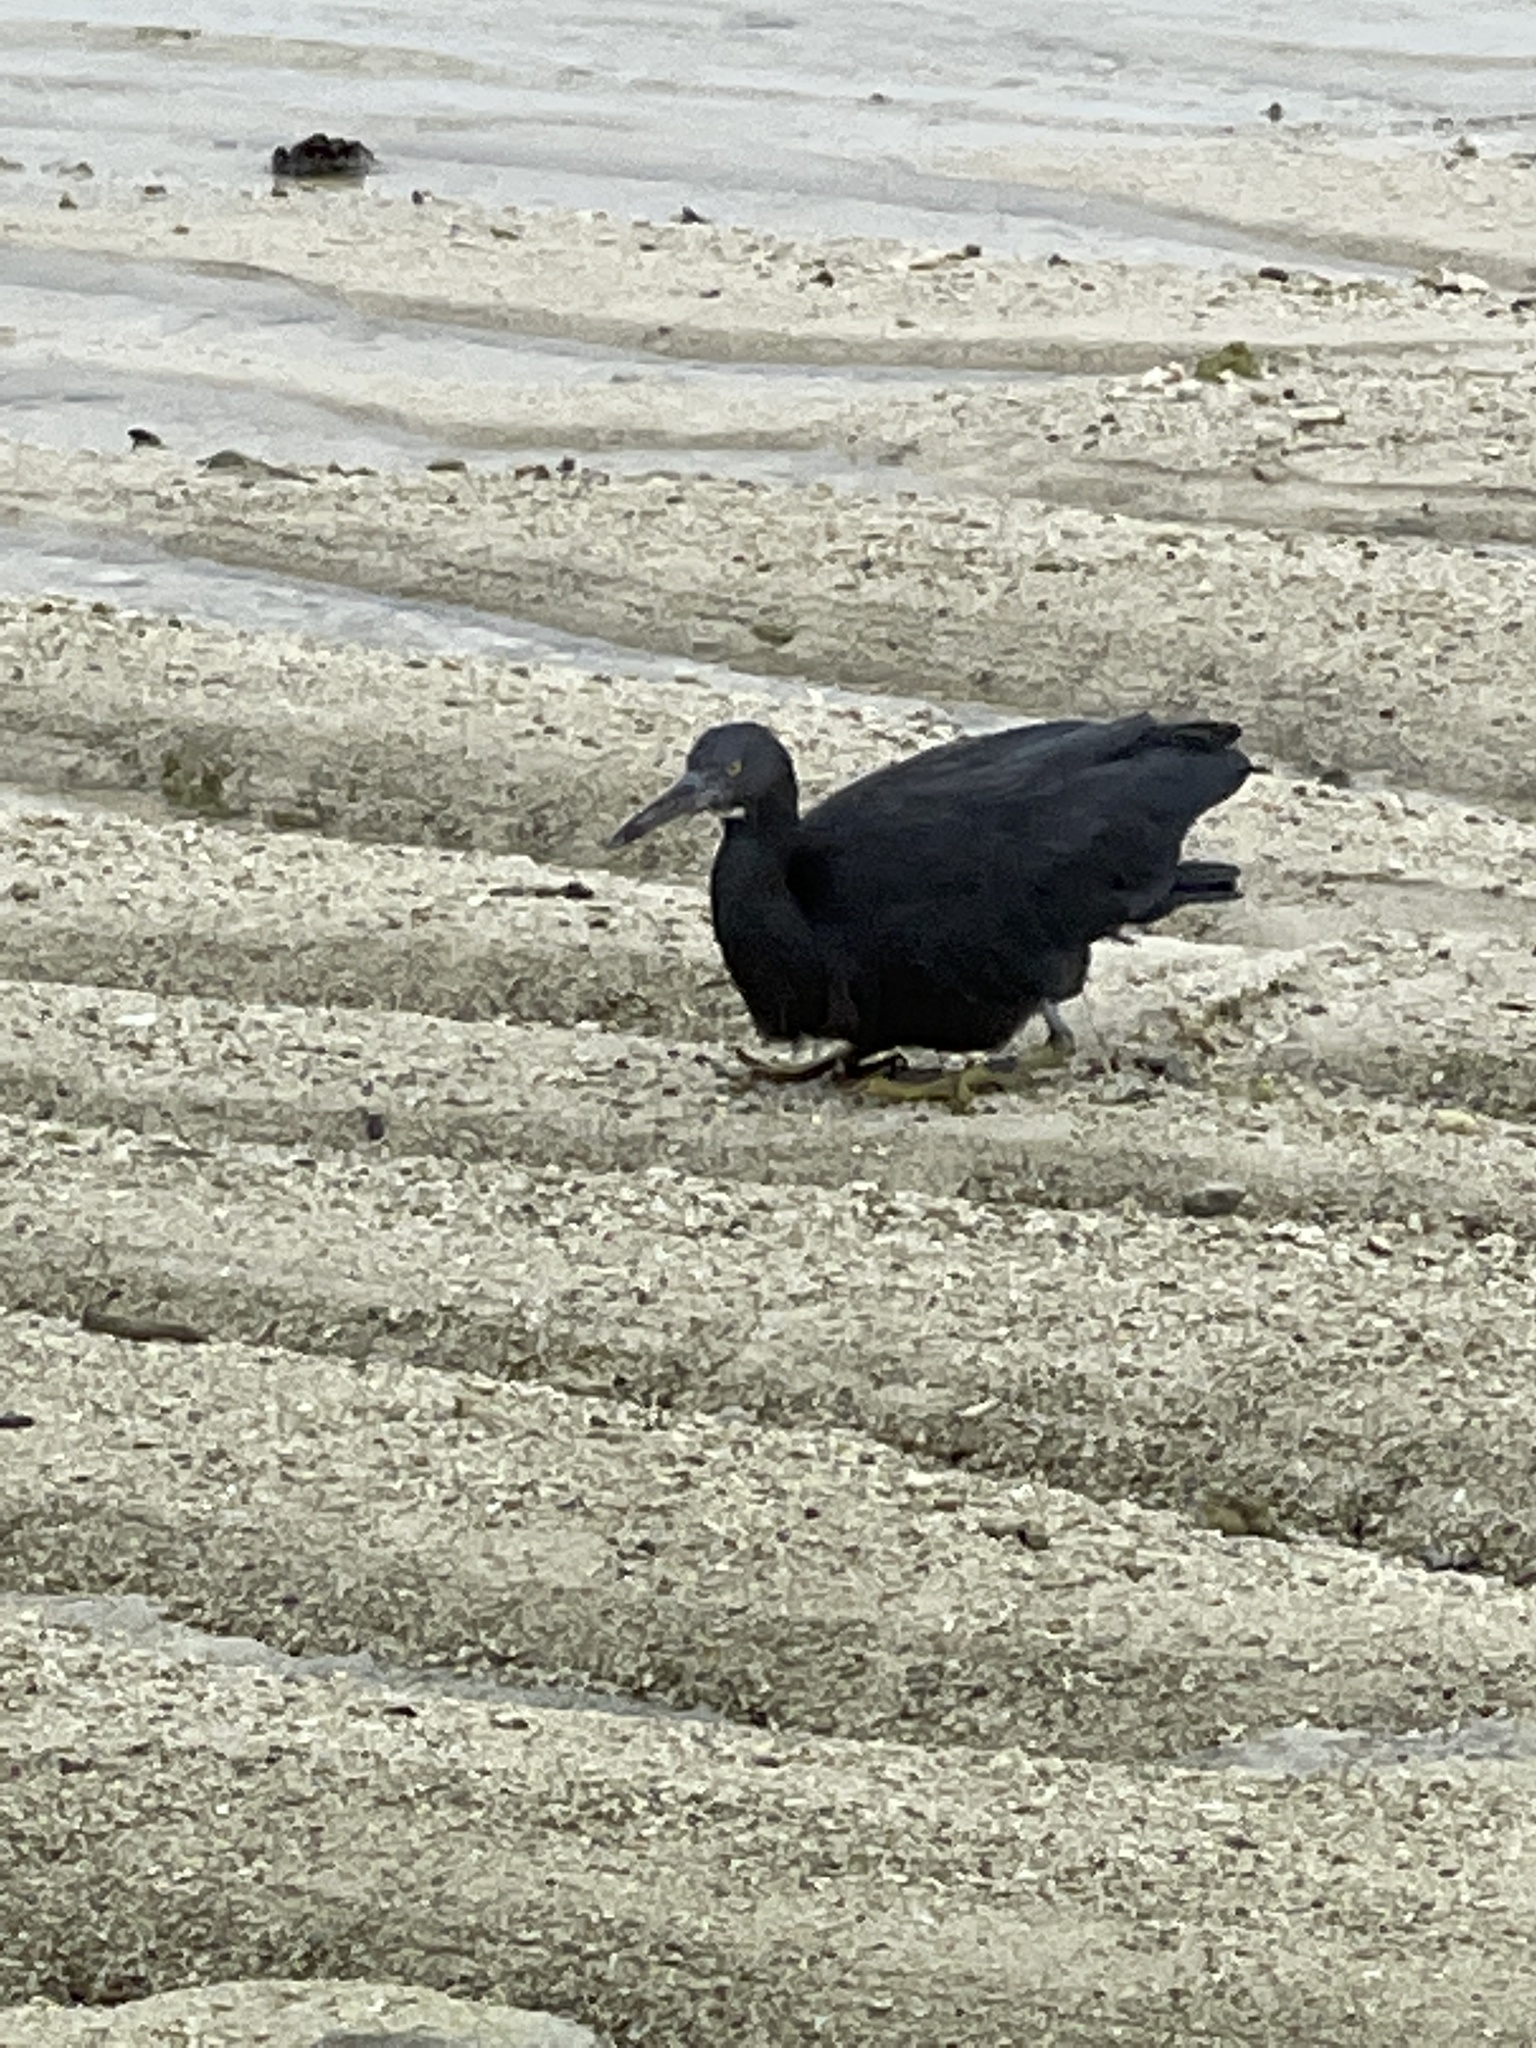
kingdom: Animalia
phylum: Chordata
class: Aves
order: Pelecaniformes
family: Ardeidae
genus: Egretta
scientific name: Egretta sacra
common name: Pacific reef heron
